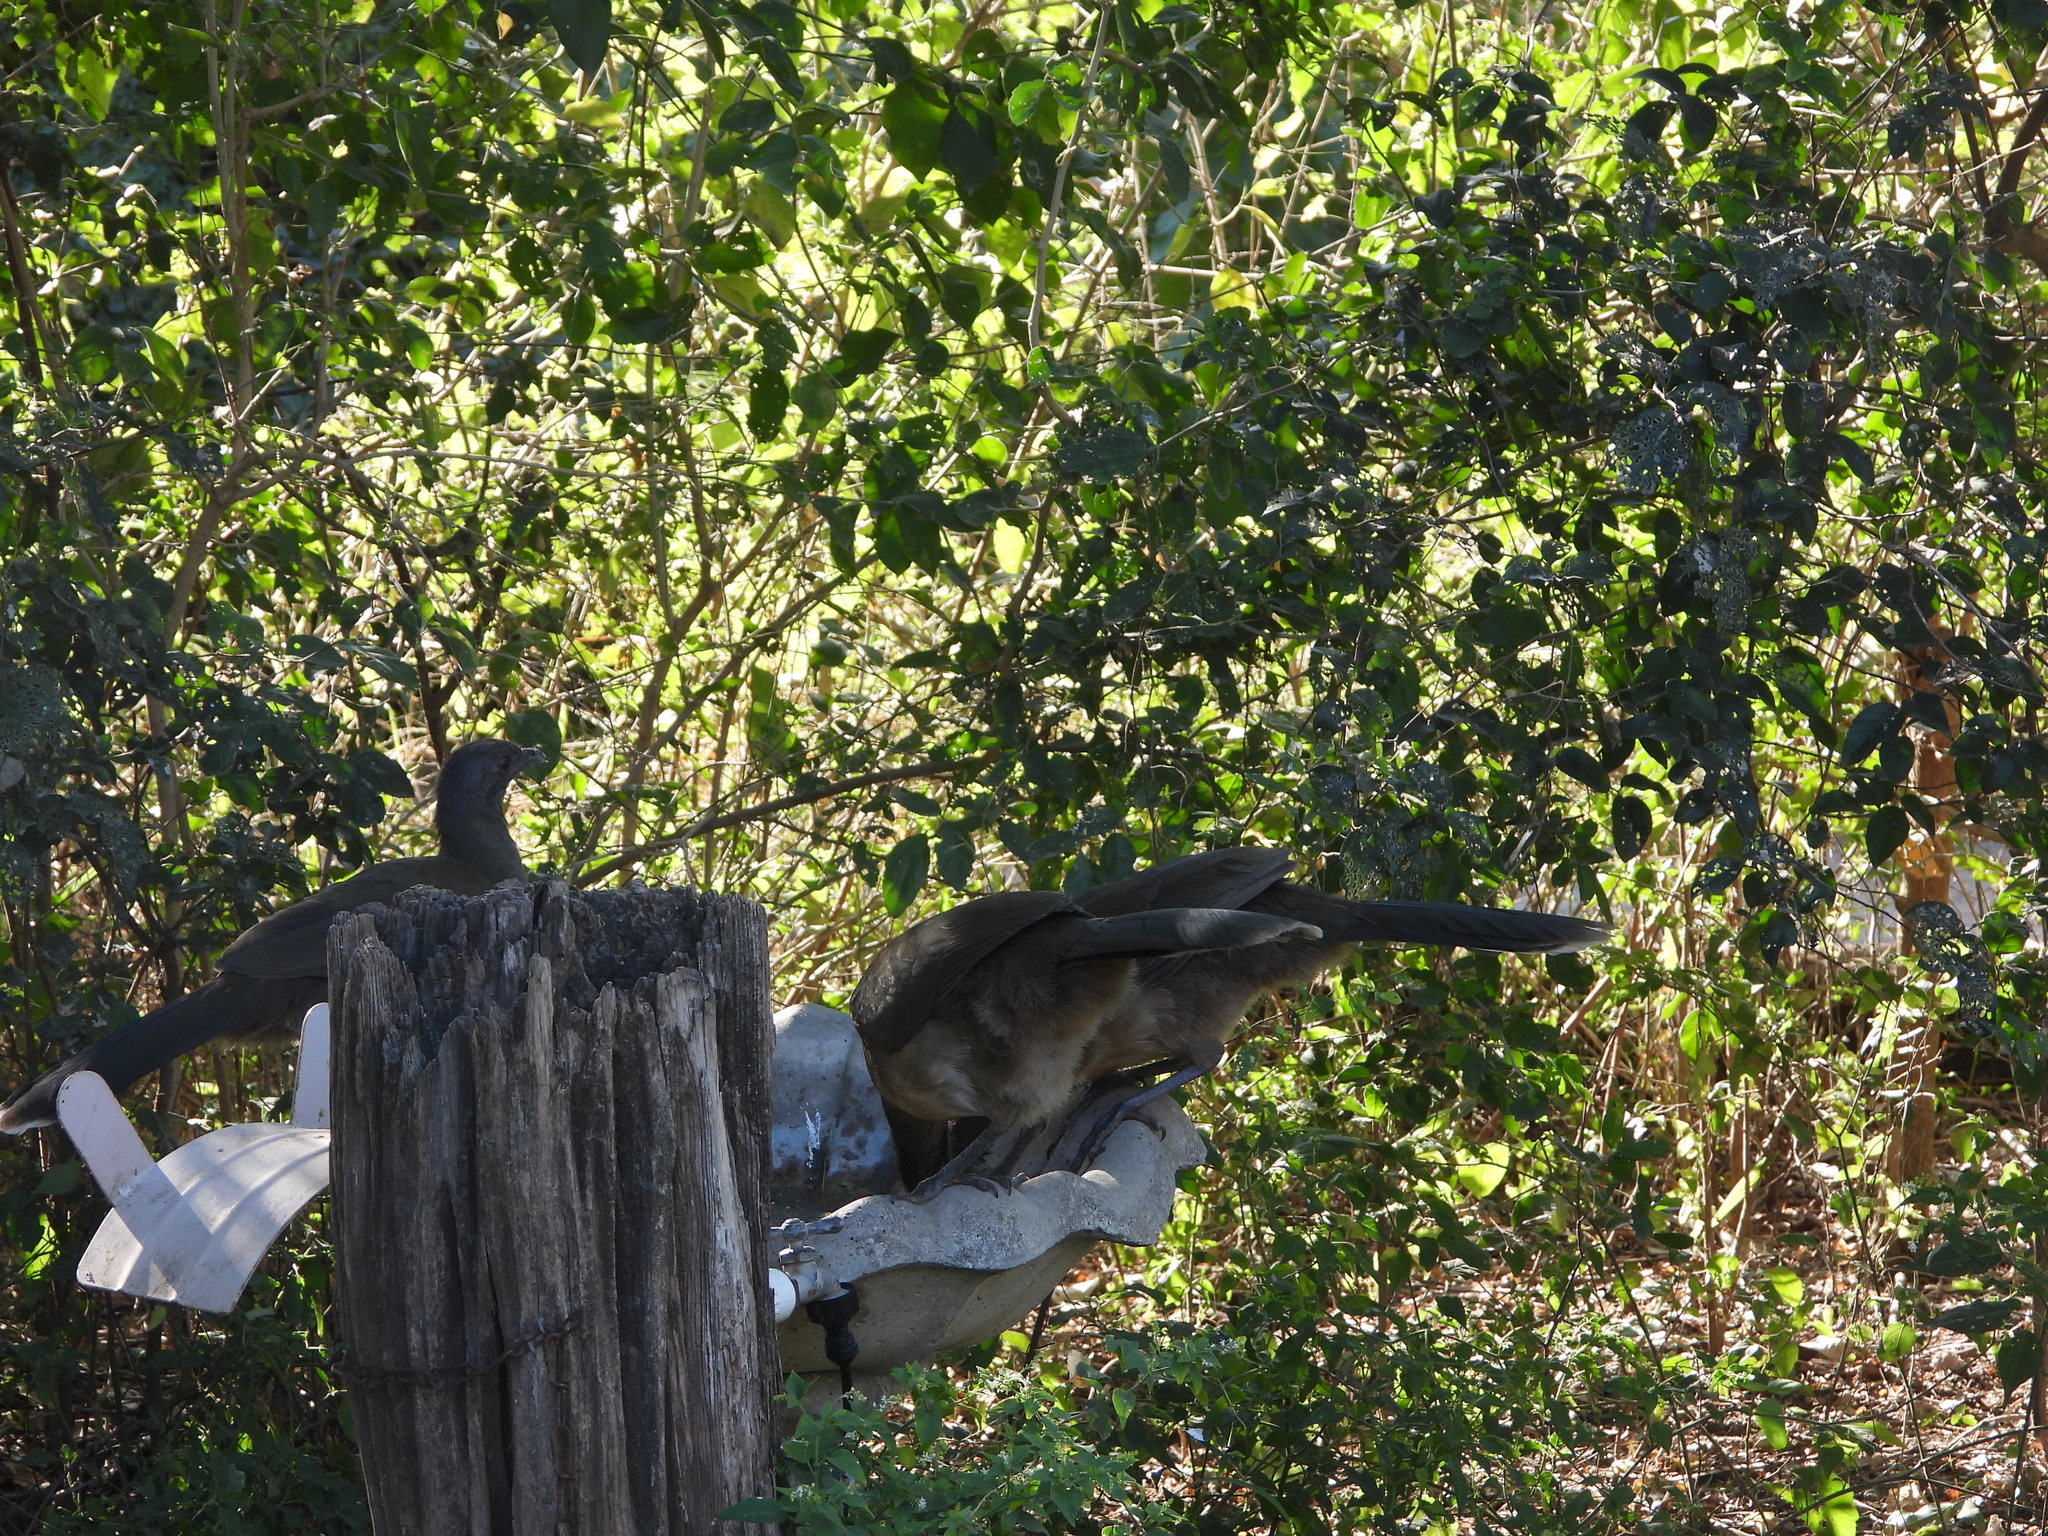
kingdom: Animalia
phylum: Chordata
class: Aves
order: Galliformes
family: Cracidae
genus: Ortalis
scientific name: Ortalis vetula
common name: Plain chachalaca
